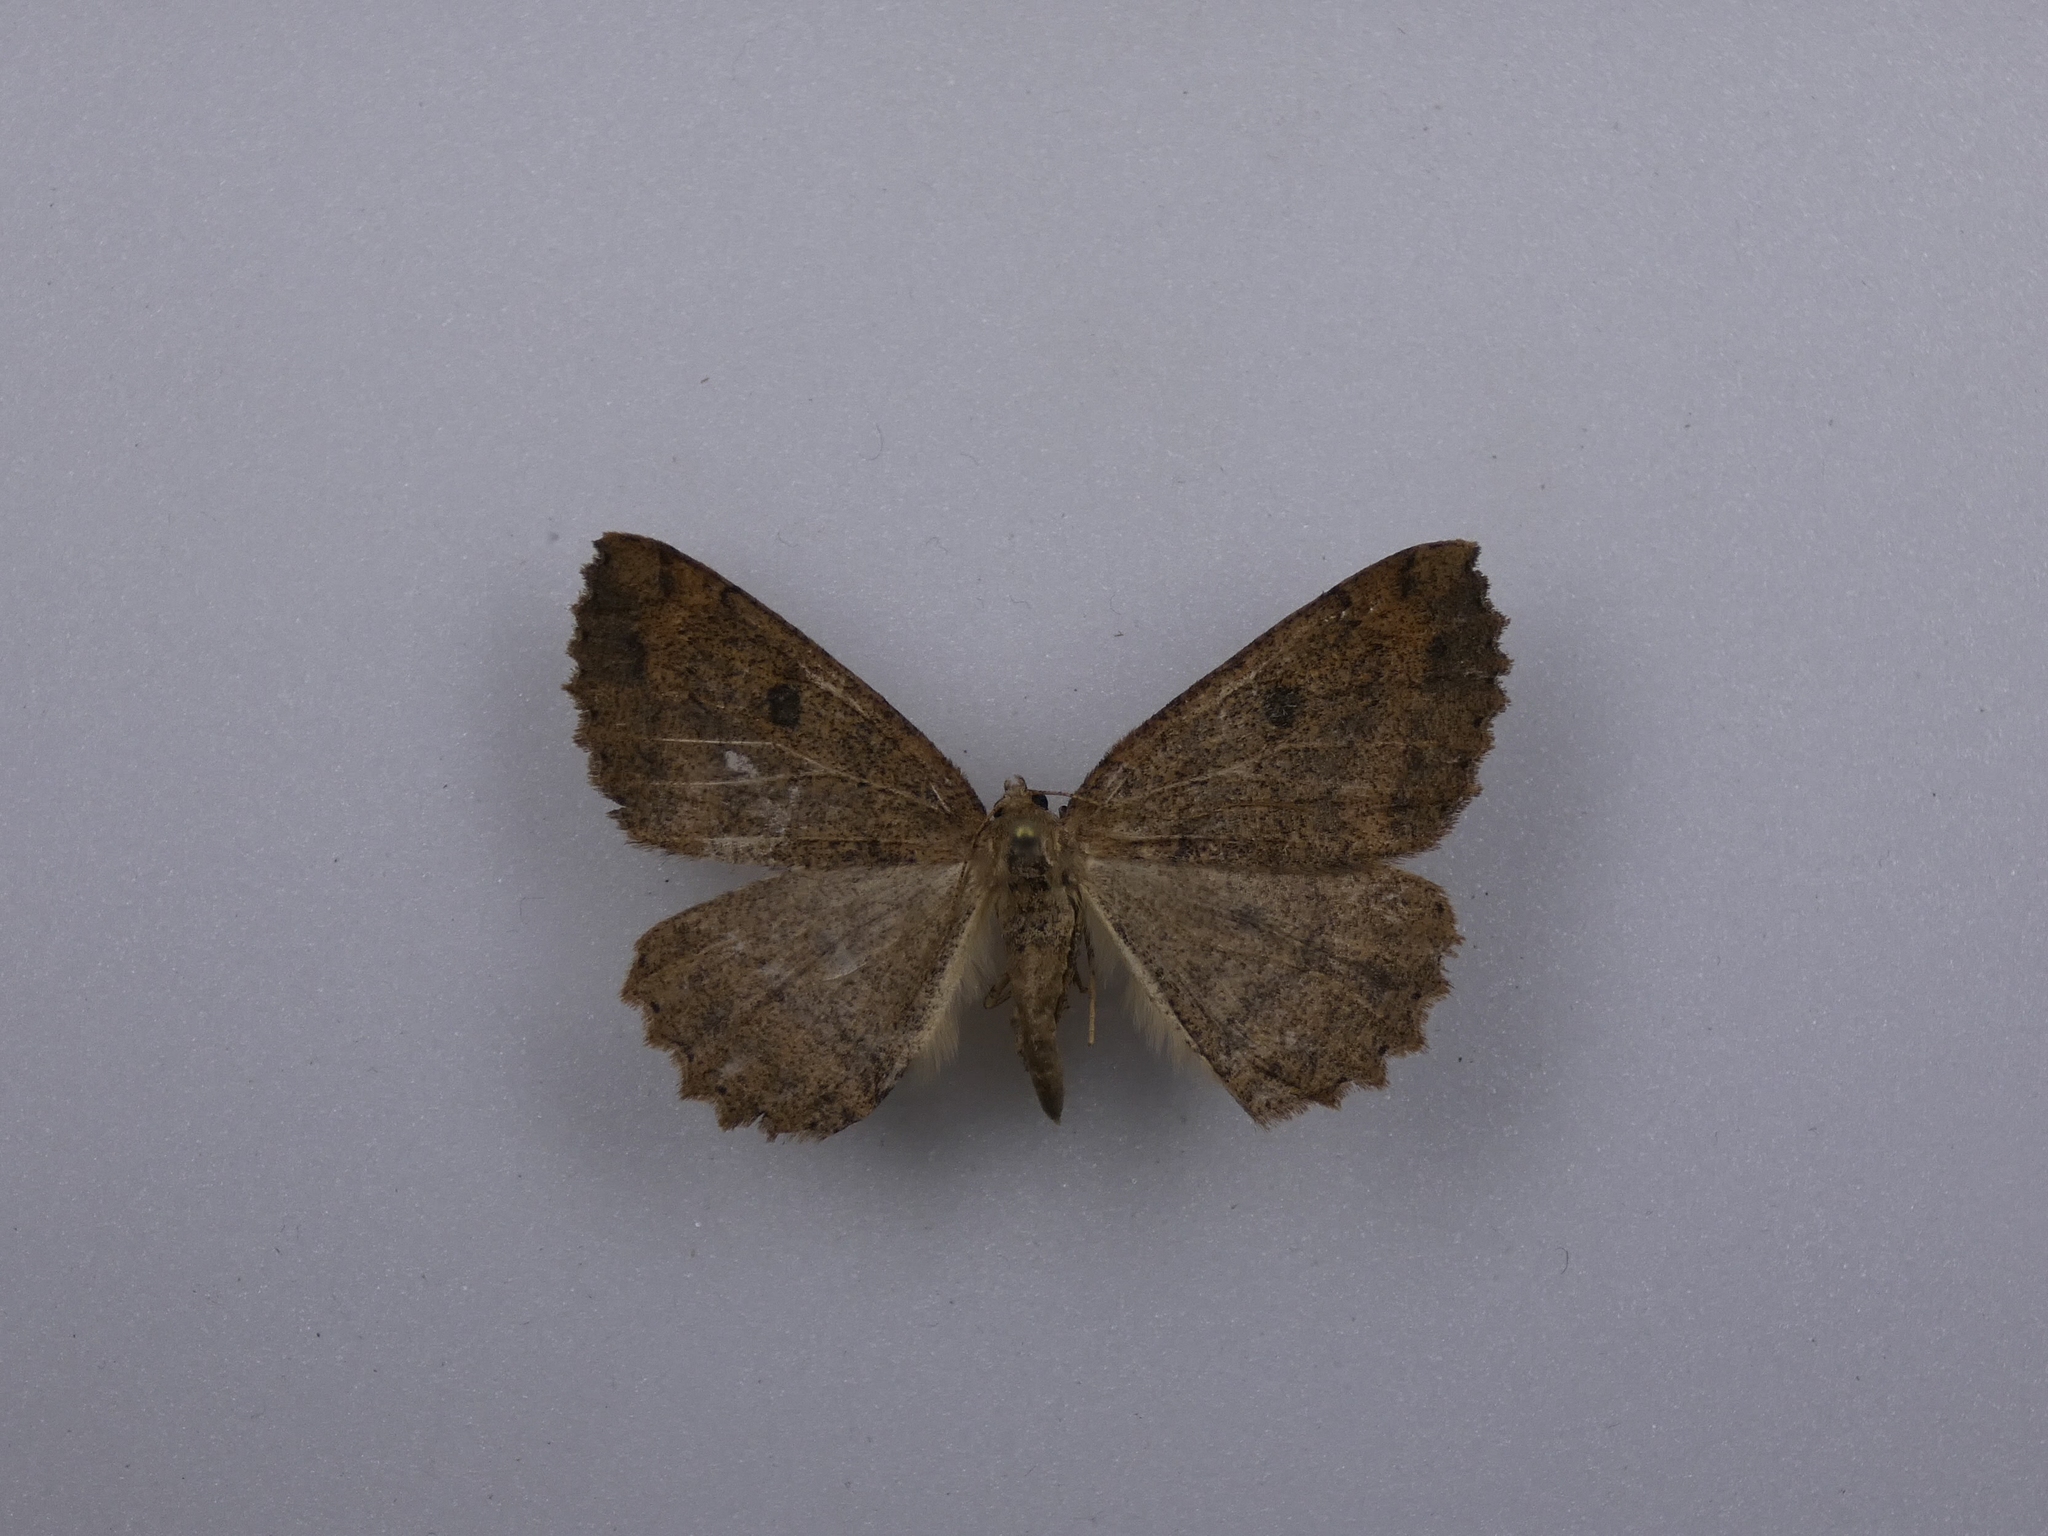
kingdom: Animalia
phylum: Arthropoda
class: Insecta
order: Lepidoptera
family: Geometridae
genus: Cleora
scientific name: Cleora scriptaria
